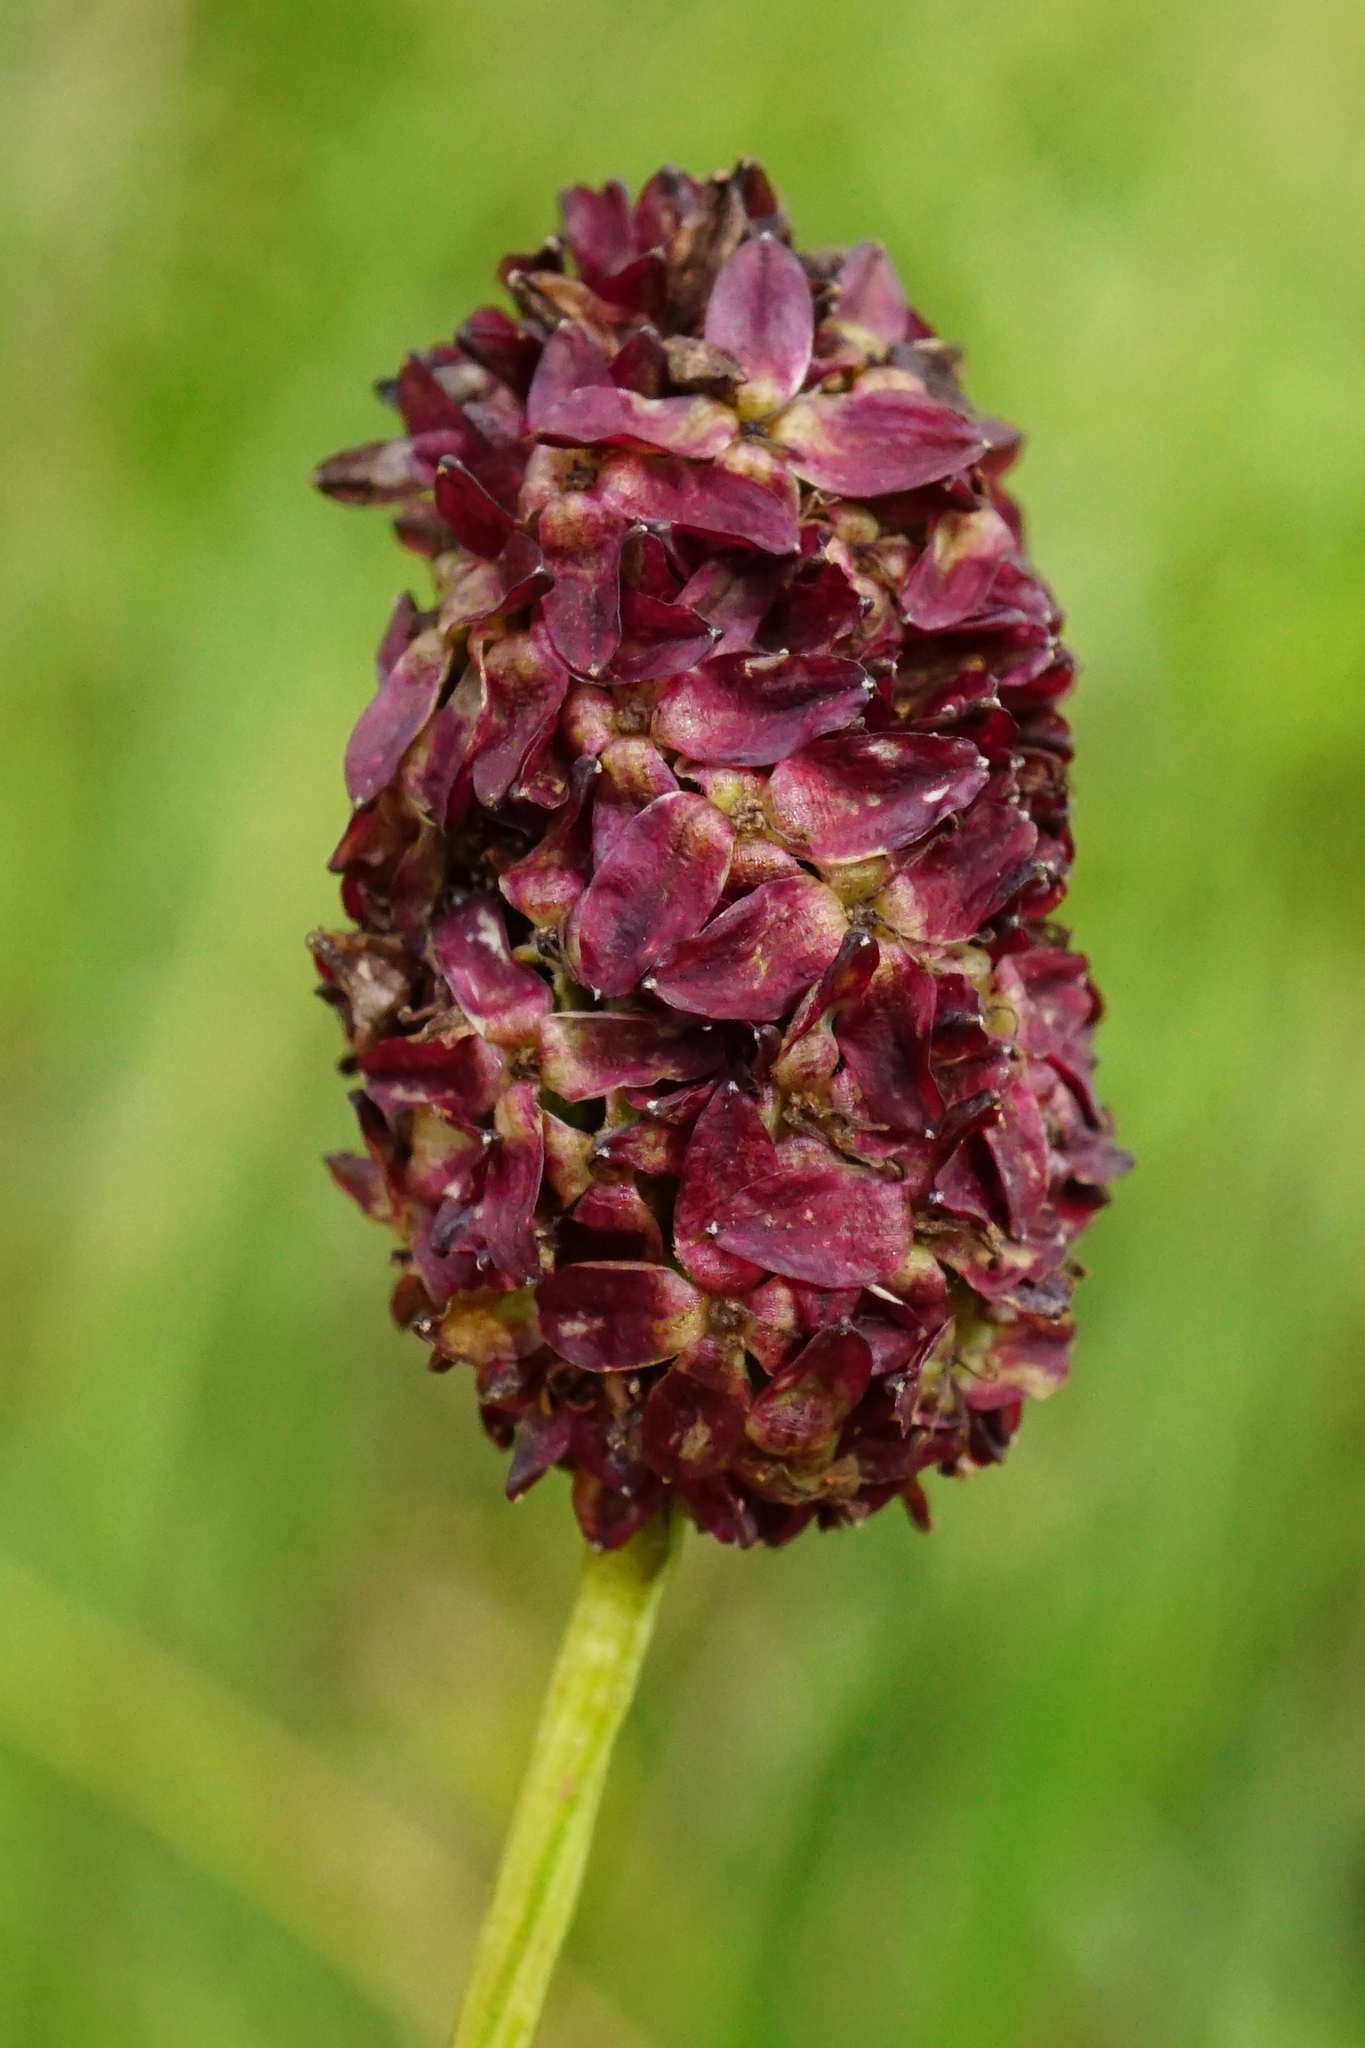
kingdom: Plantae
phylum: Tracheophyta
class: Magnoliopsida
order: Rosales
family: Rosaceae
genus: Sanguisorba
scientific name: Sanguisorba officinalis
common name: Great burnet
